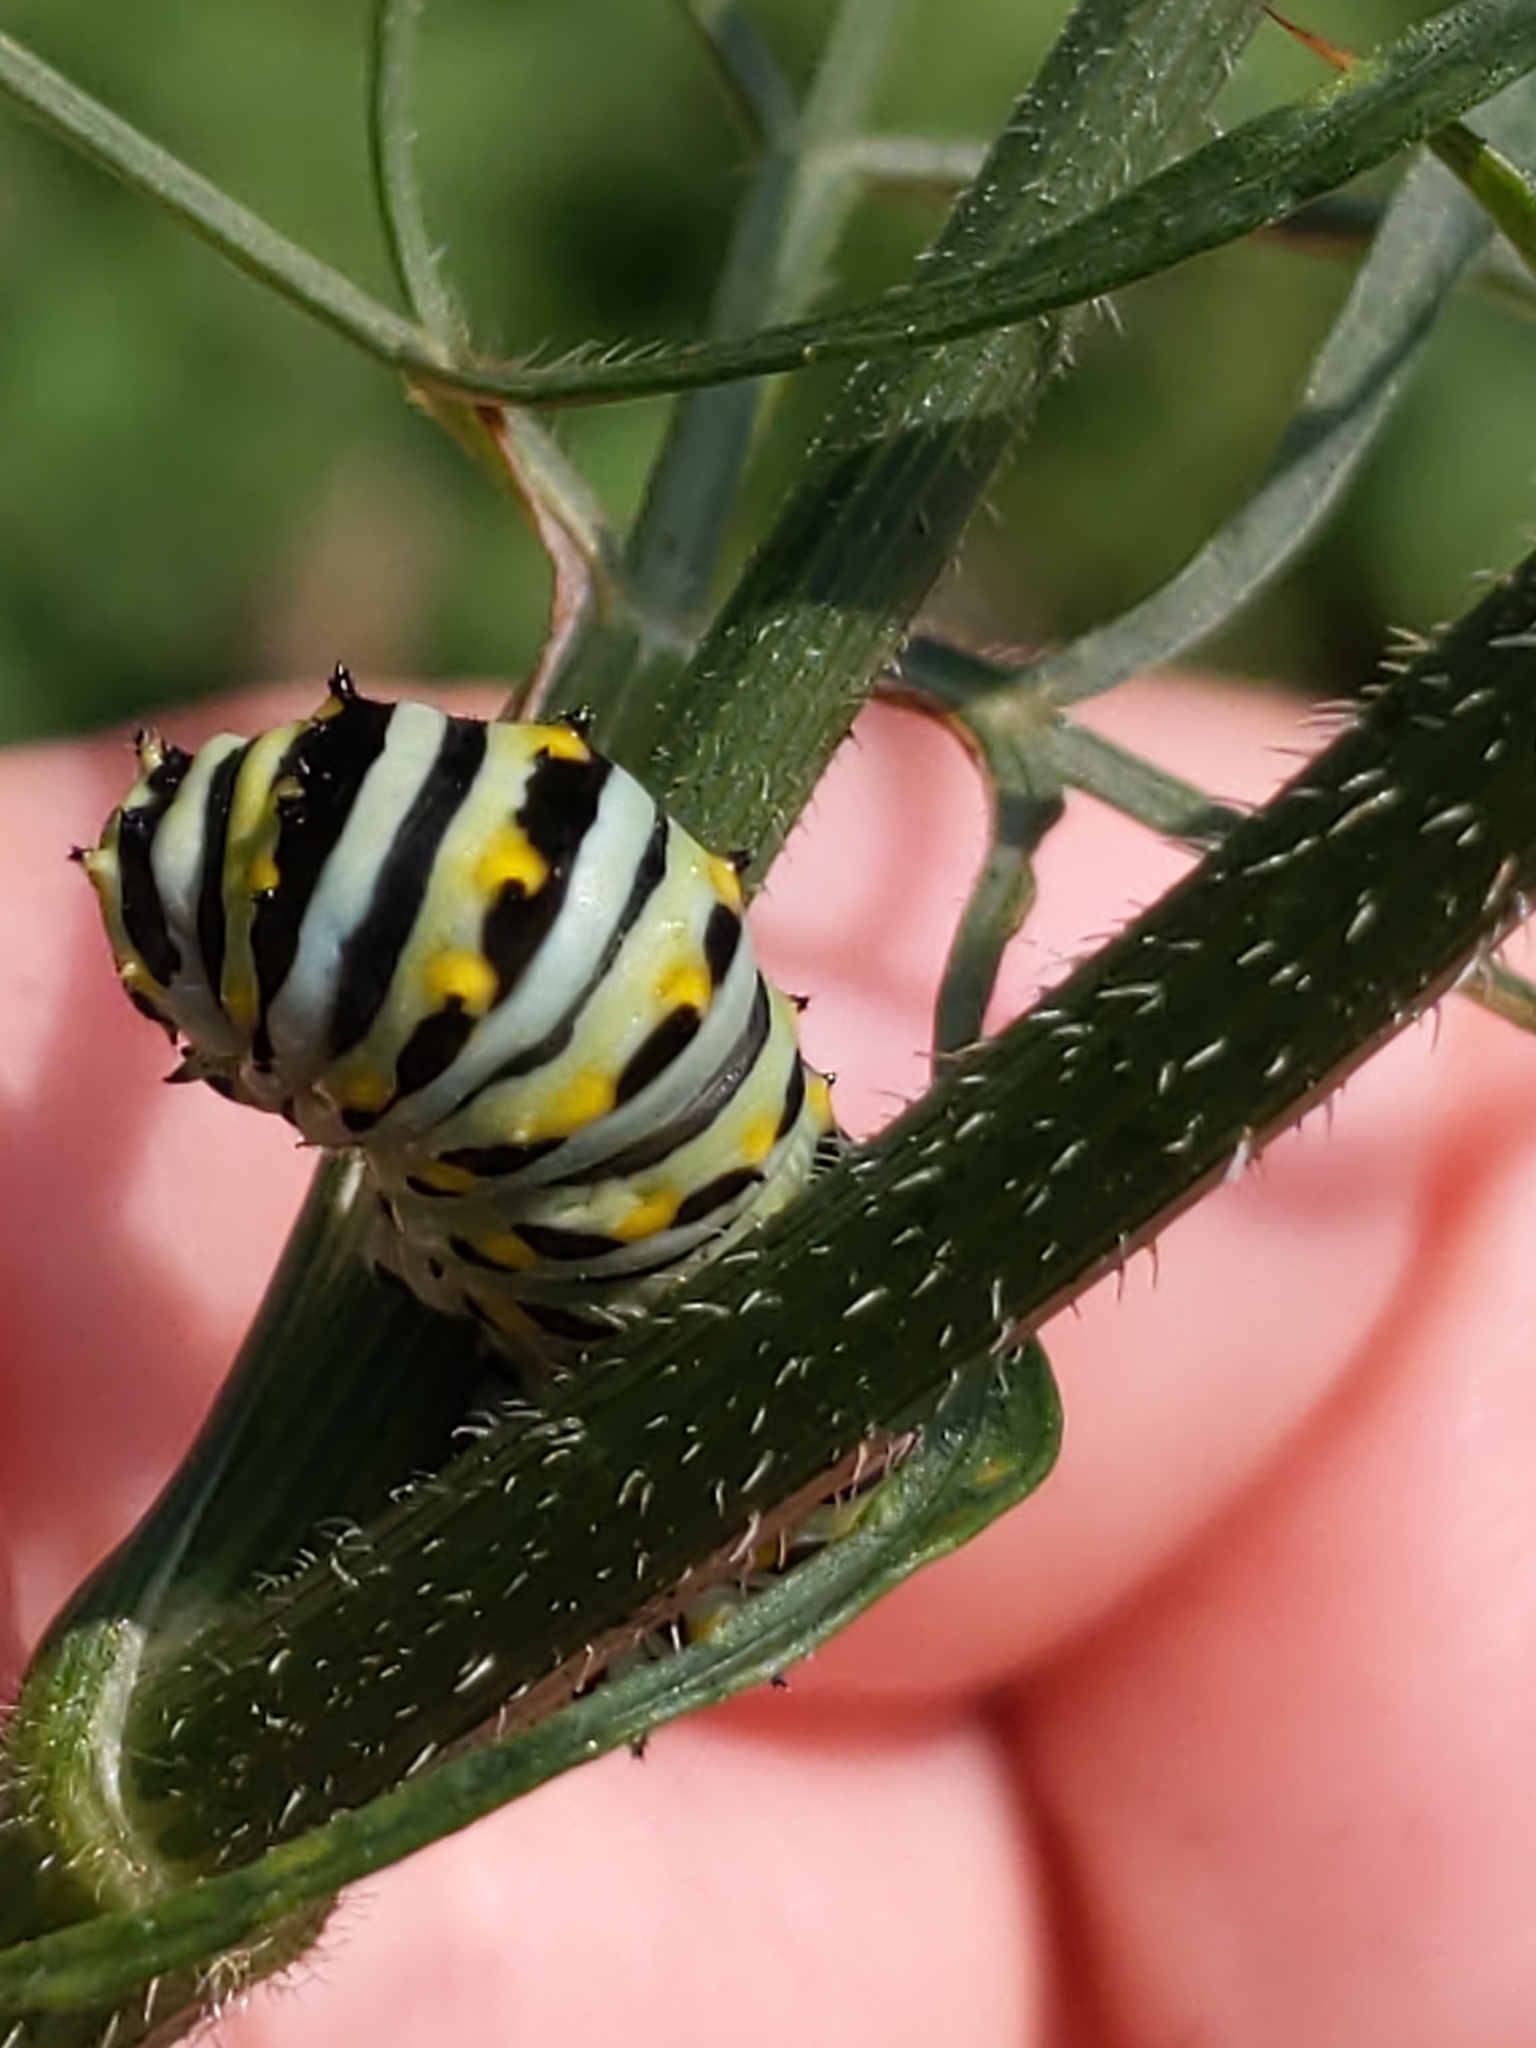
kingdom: Animalia
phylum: Arthropoda
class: Insecta
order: Lepidoptera
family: Papilionidae
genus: Papilio
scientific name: Papilio polyxenes
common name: Black swallowtail
